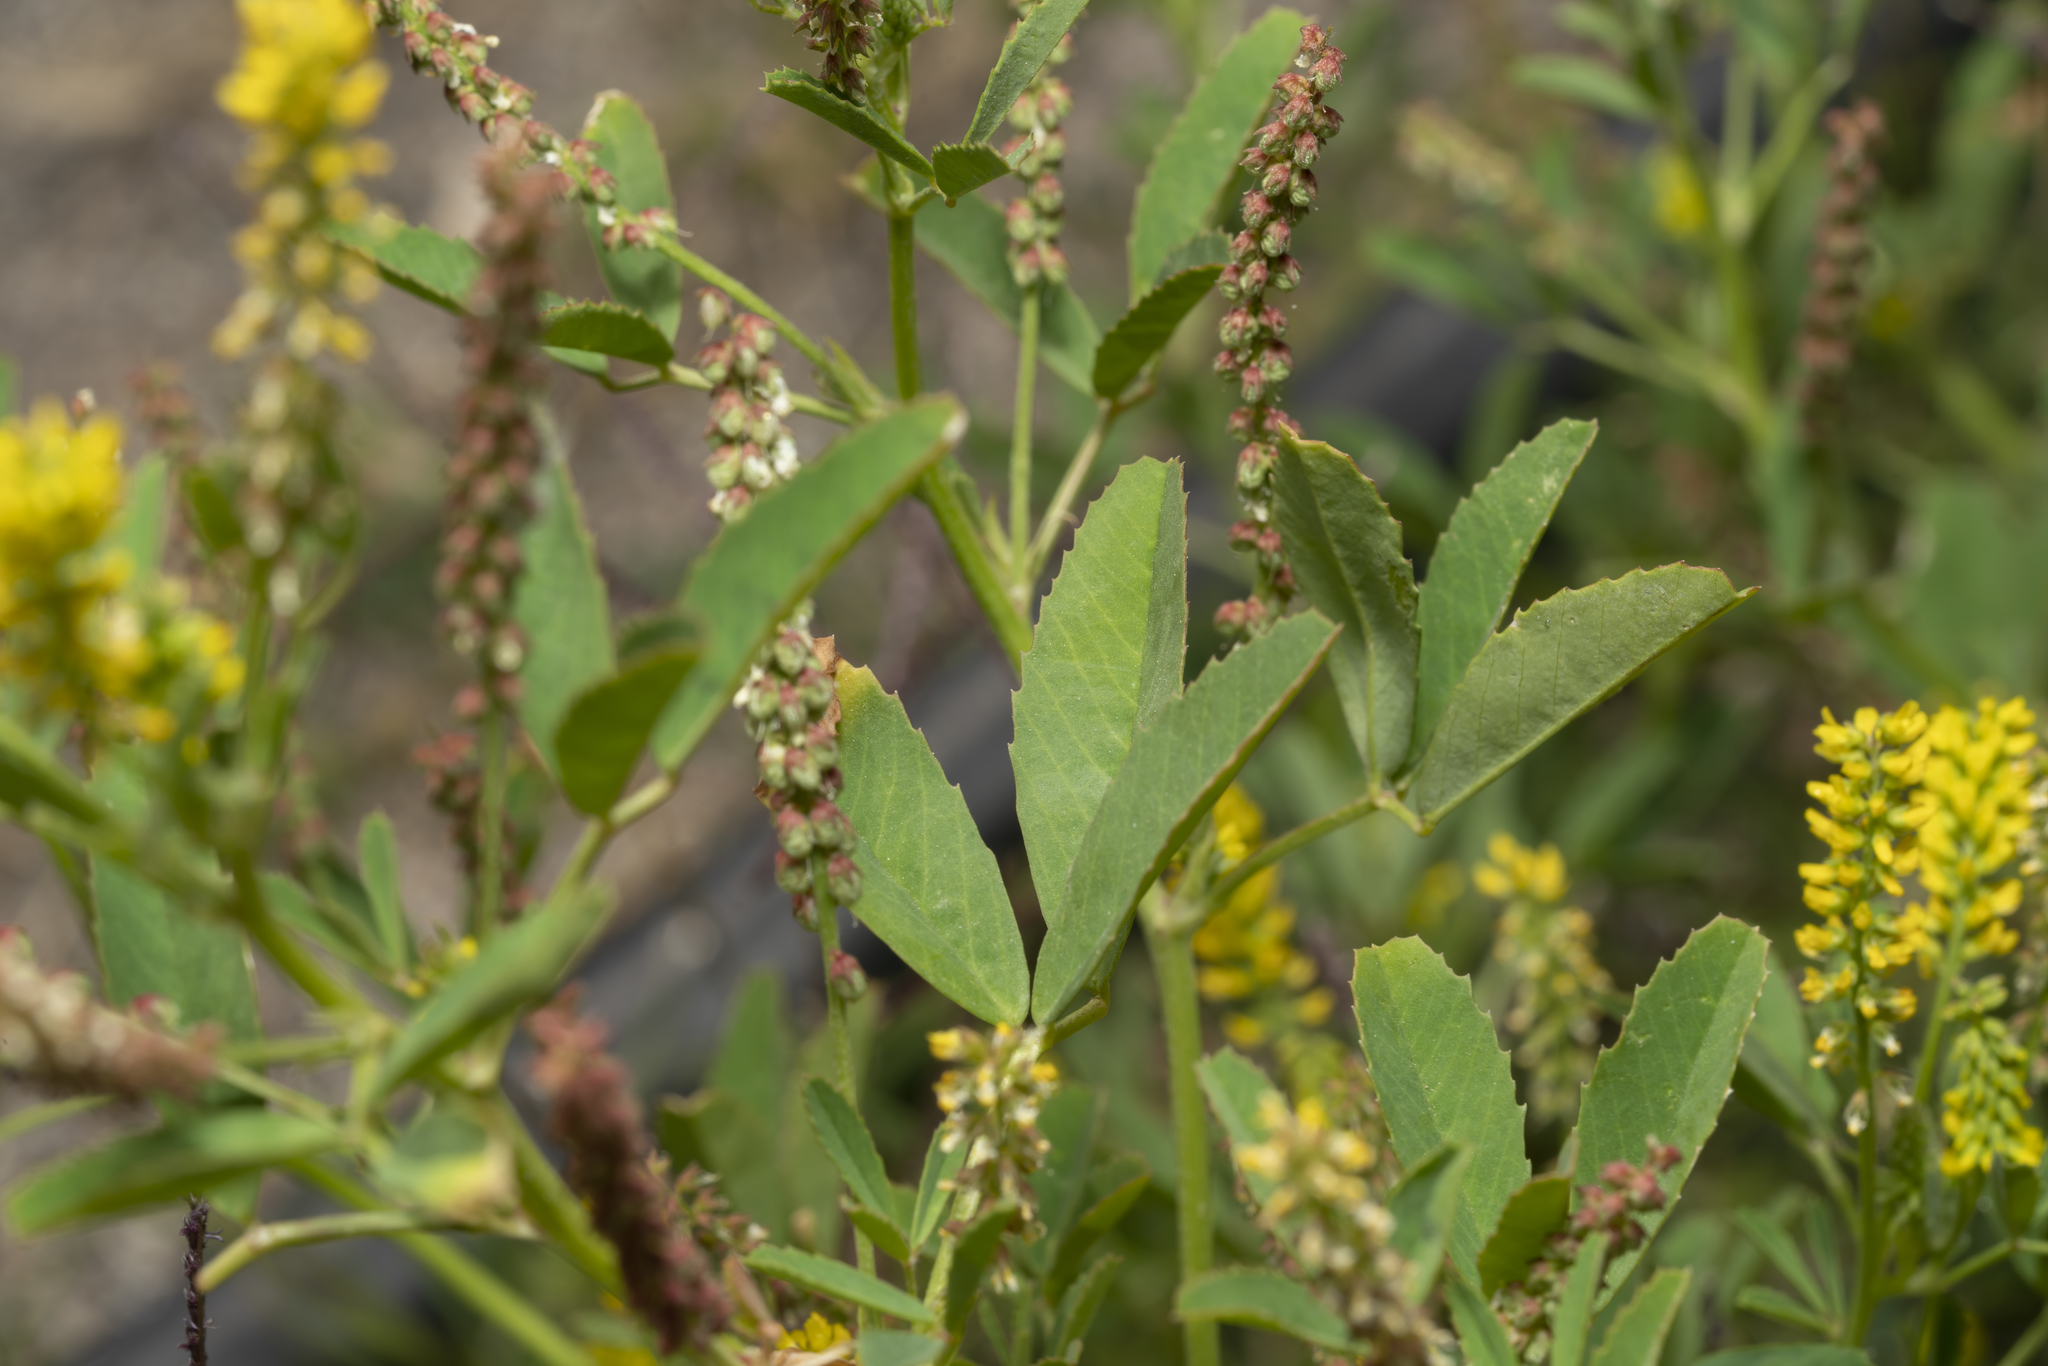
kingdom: Plantae
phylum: Tracheophyta
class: Magnoliopsida
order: Fabales
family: Fabaceae
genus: Melilotus
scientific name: Melilotus indicus
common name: Small melilot
